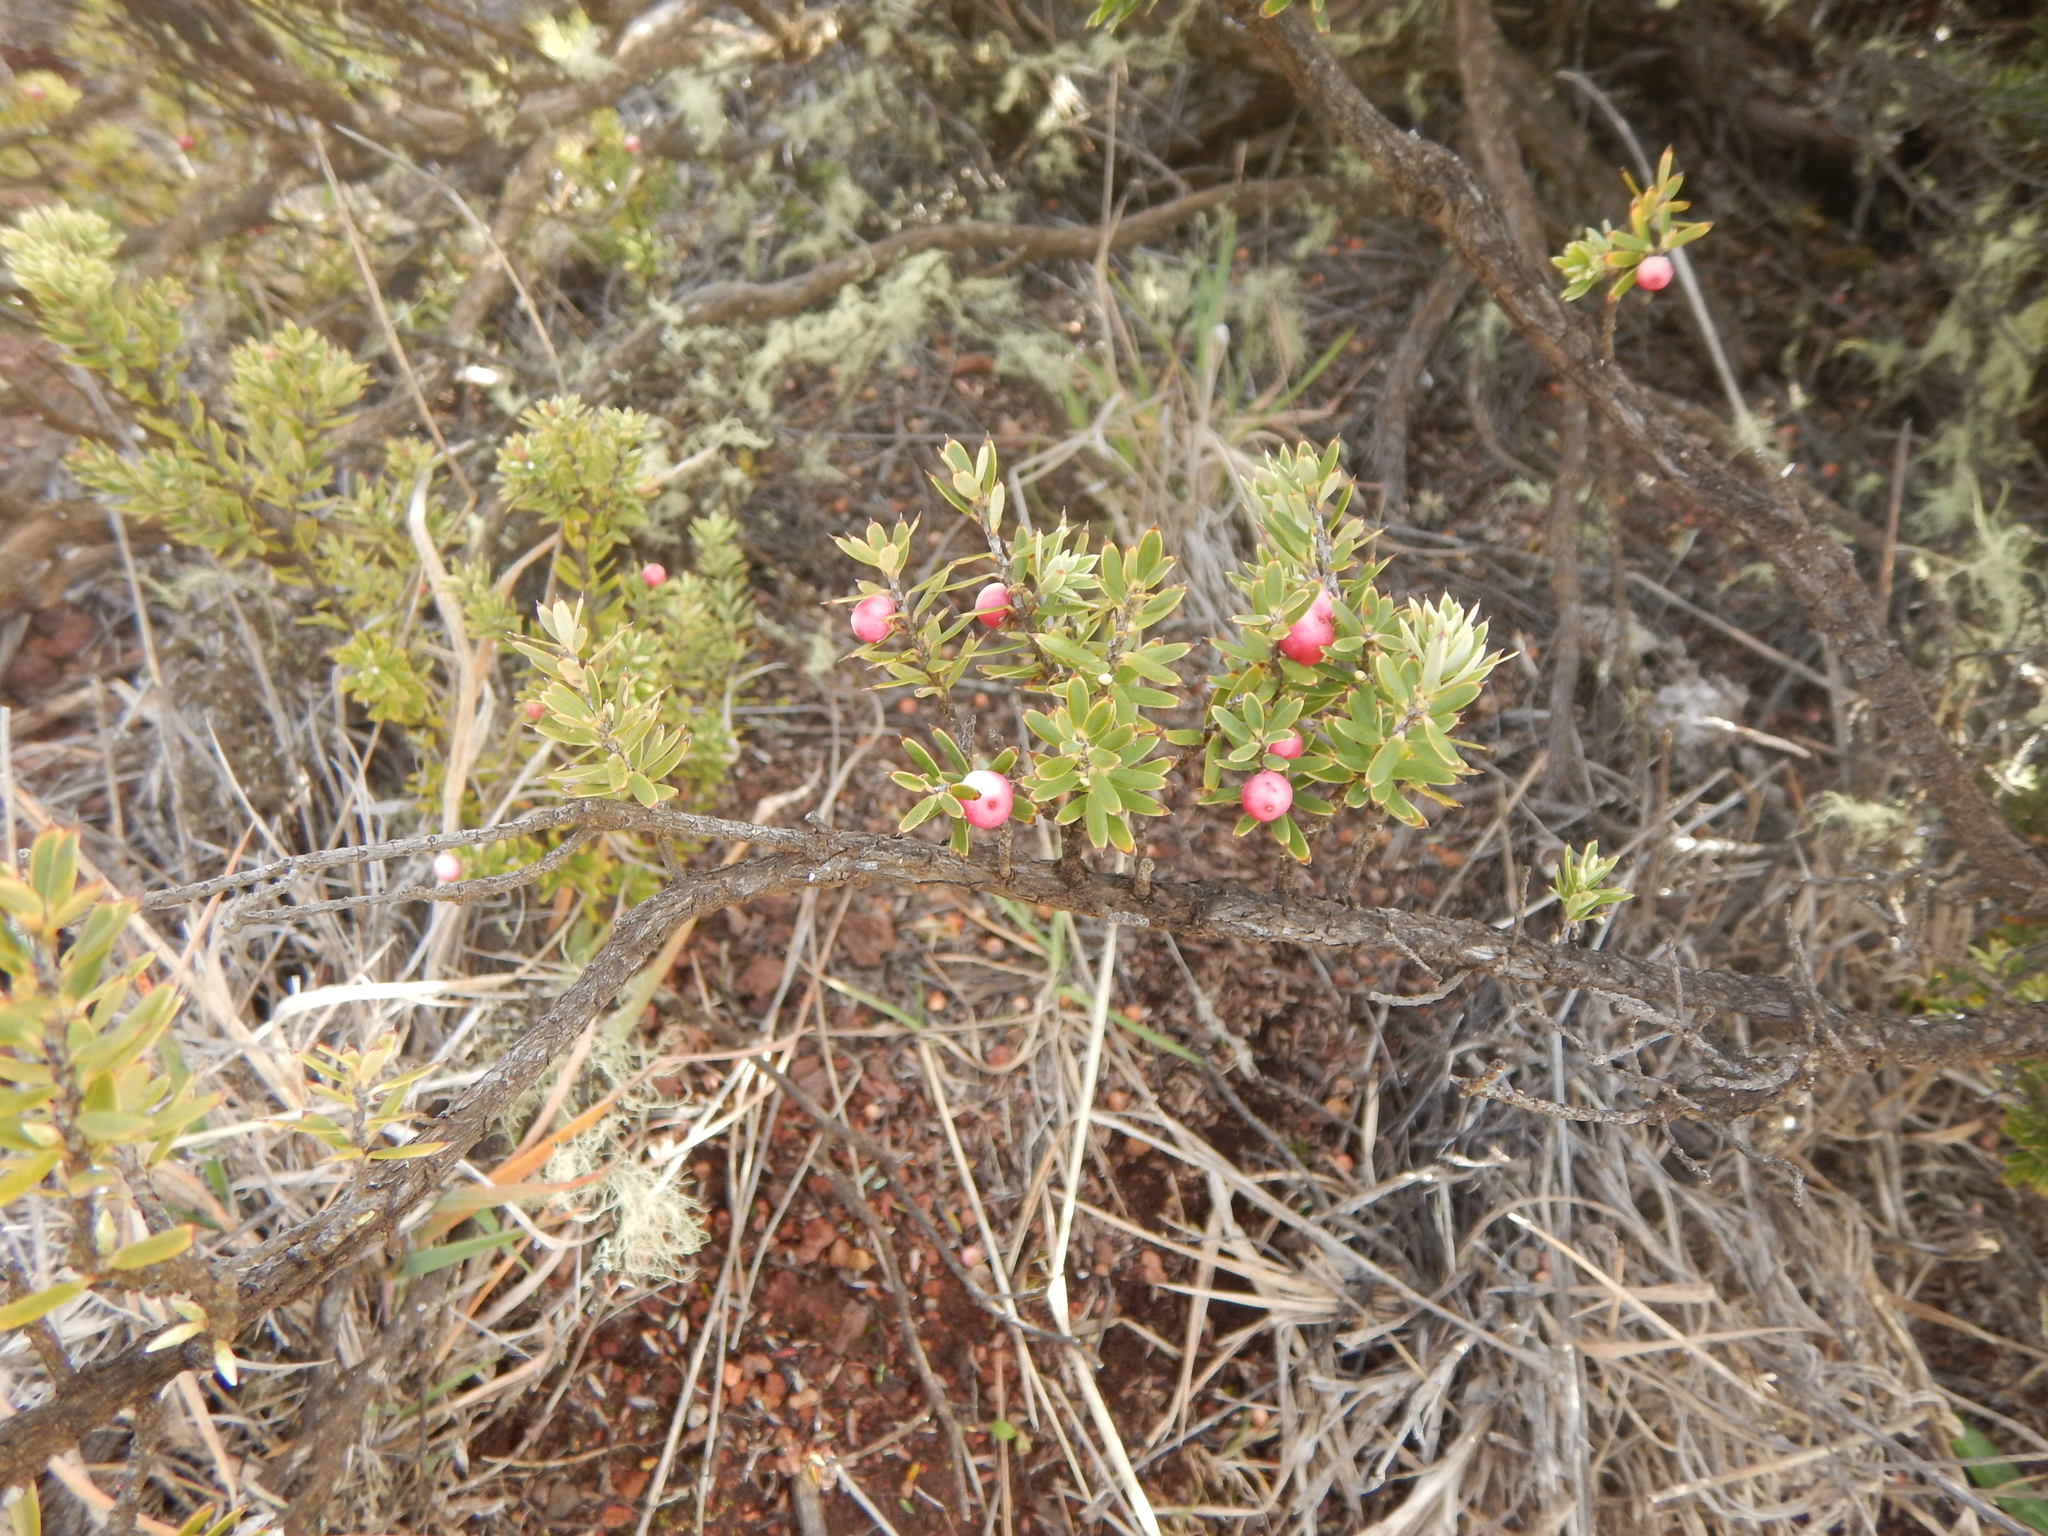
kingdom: Plantae
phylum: Tracheophyta
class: Magnoliopsida
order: Ericales
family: Ericaceae
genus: Leptecophylla
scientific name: Leptecophylla tameiameiae
